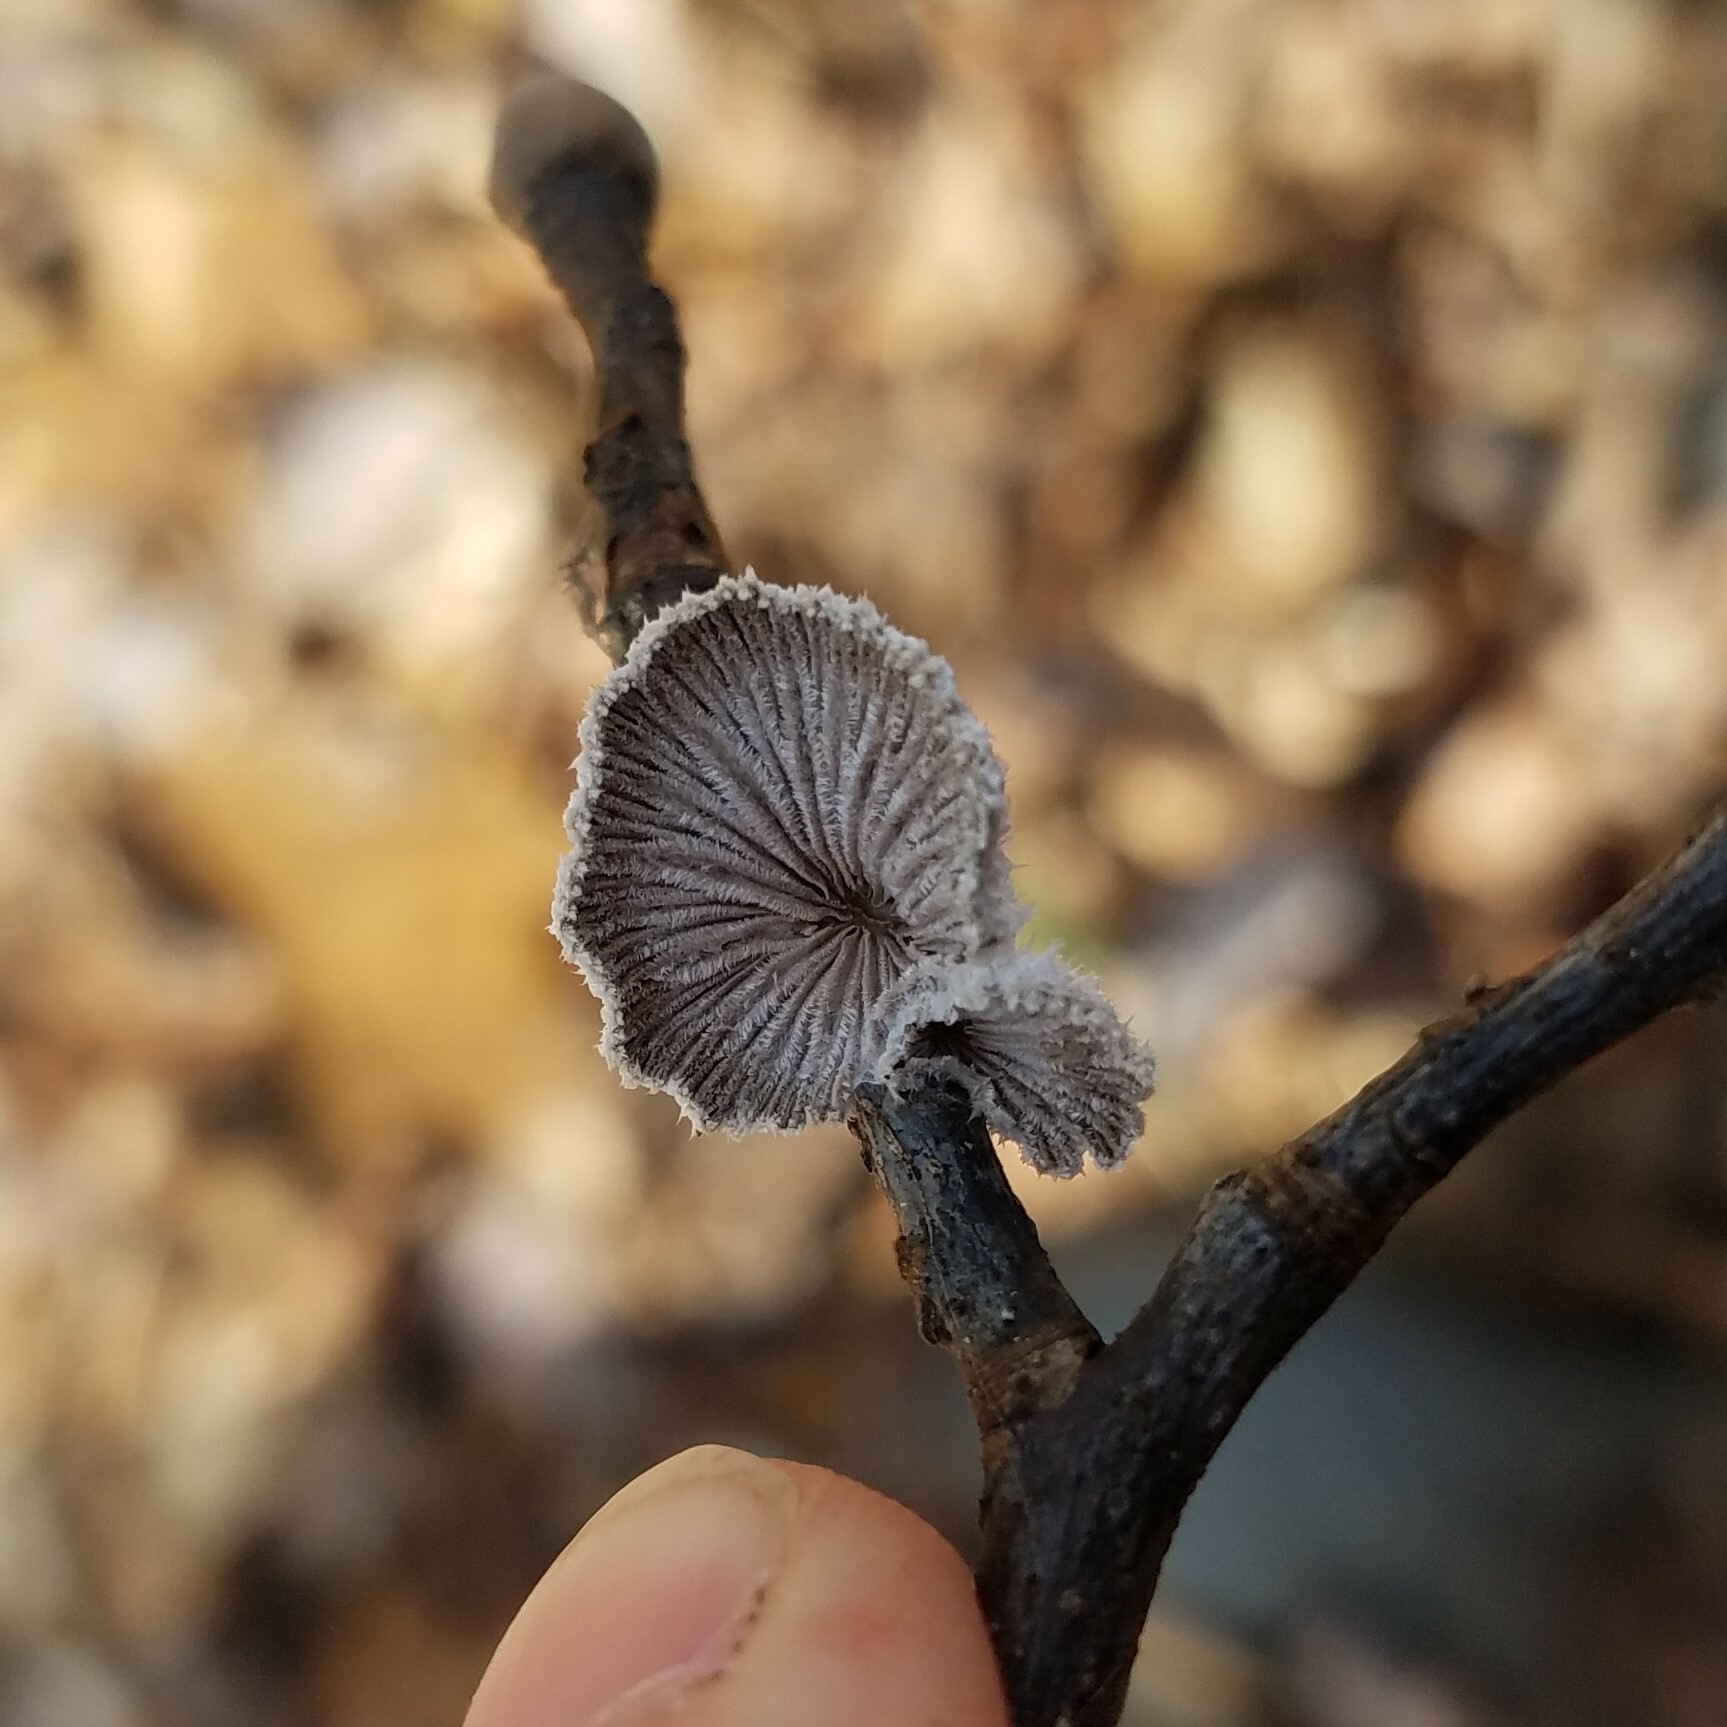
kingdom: Fungi
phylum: Basidiomycota
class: Agaricomycetes
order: Agaricales
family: Schizophyllaceae
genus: Schizophyllum
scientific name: Schizophyllum commune
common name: Common porecrust
